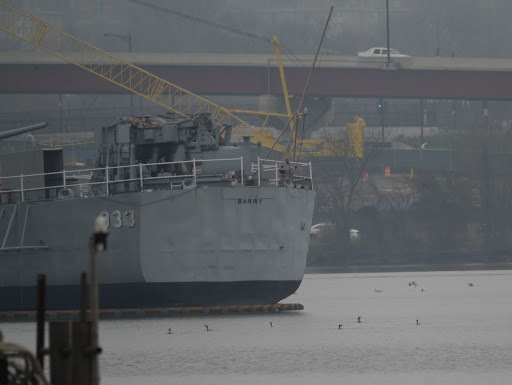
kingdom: Animalia
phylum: Chordata
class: Aves
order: Suliformes
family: Phalacrocoracidae
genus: Phalacrocorax
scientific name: Phalacrocorax auritus
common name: Double-crested cormorant
